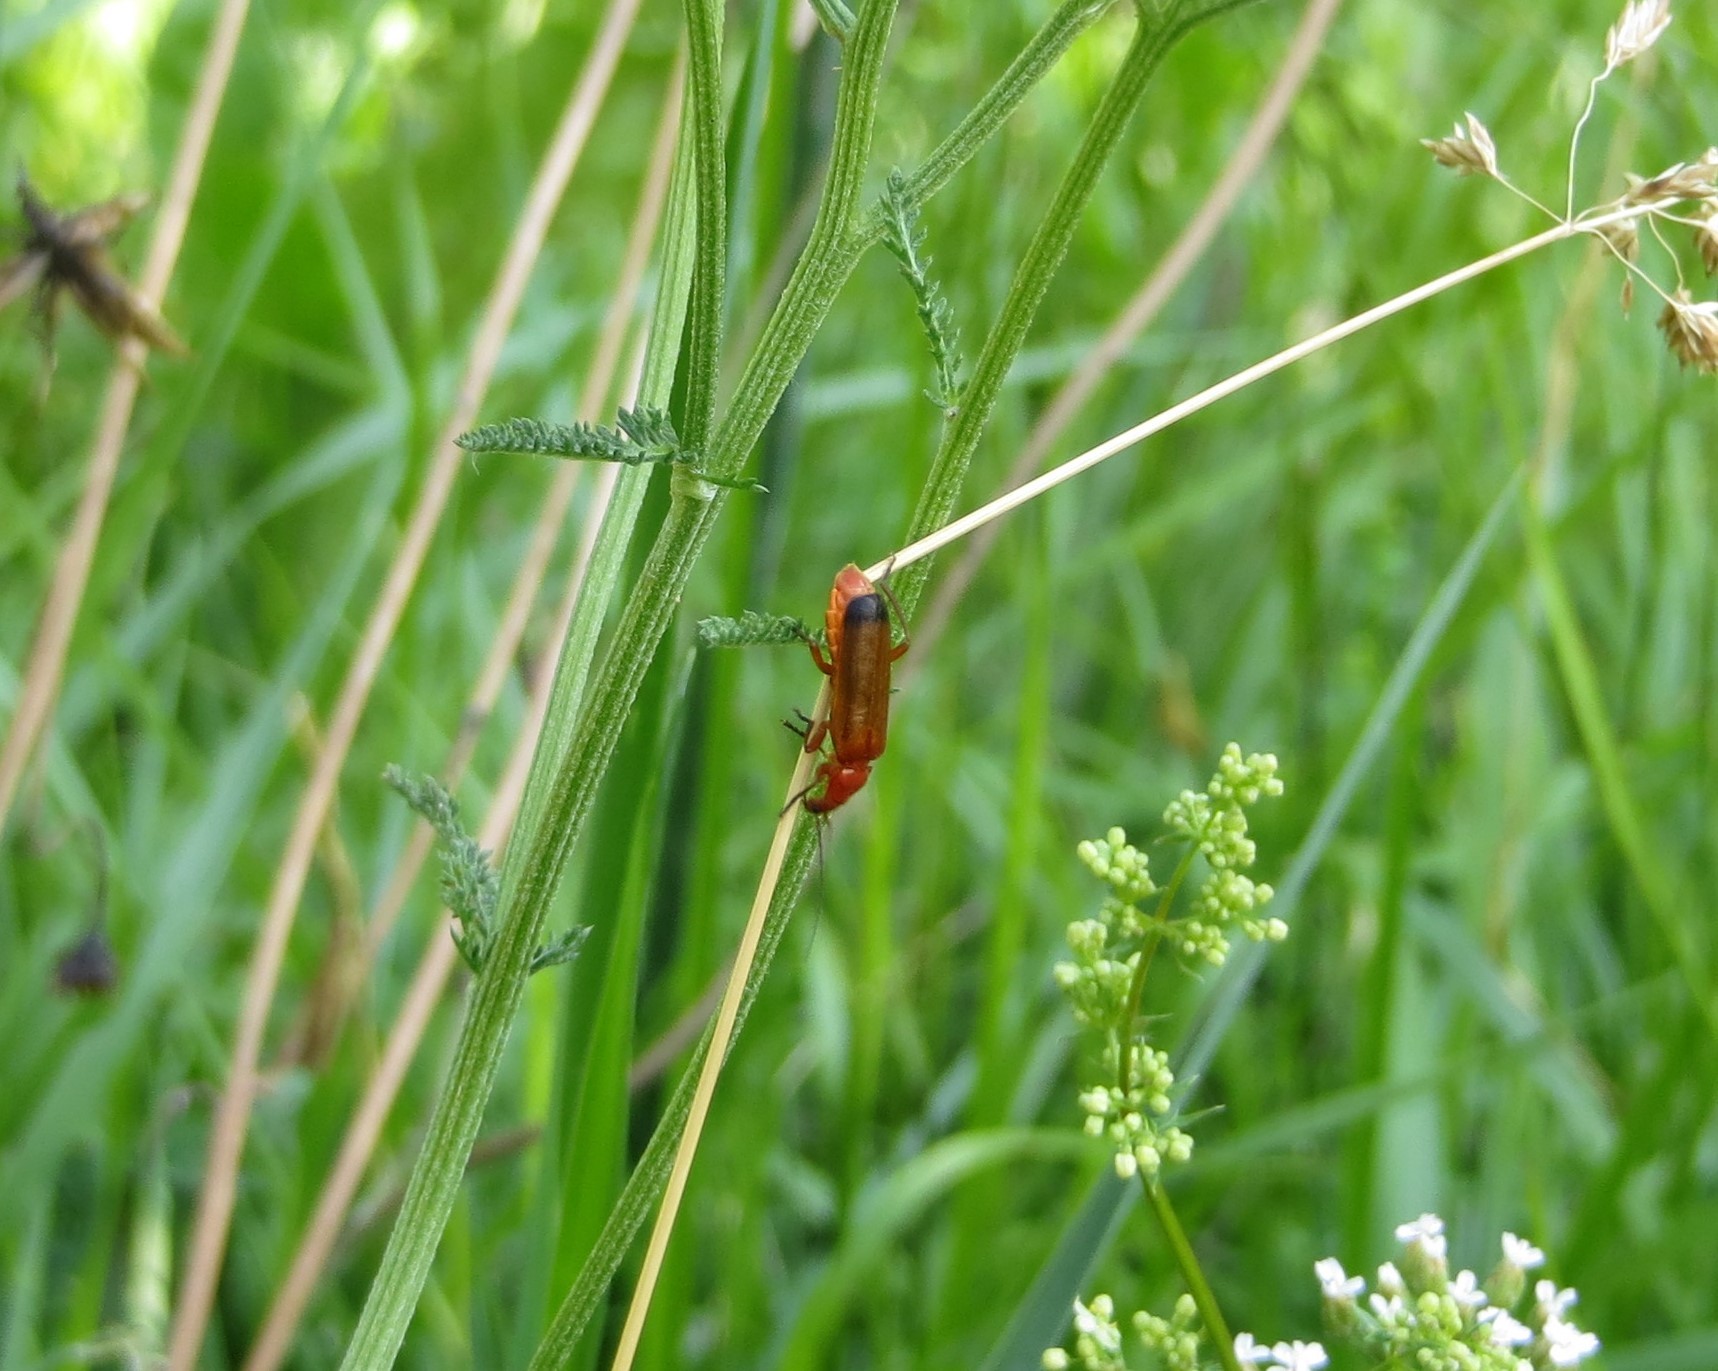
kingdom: Animalia
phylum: Arthropoda
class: Insecta
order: Coleoptera
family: Cantharidae
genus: Rhagonycha
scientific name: Rhagonycha fulva
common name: Common red soldier beetle
